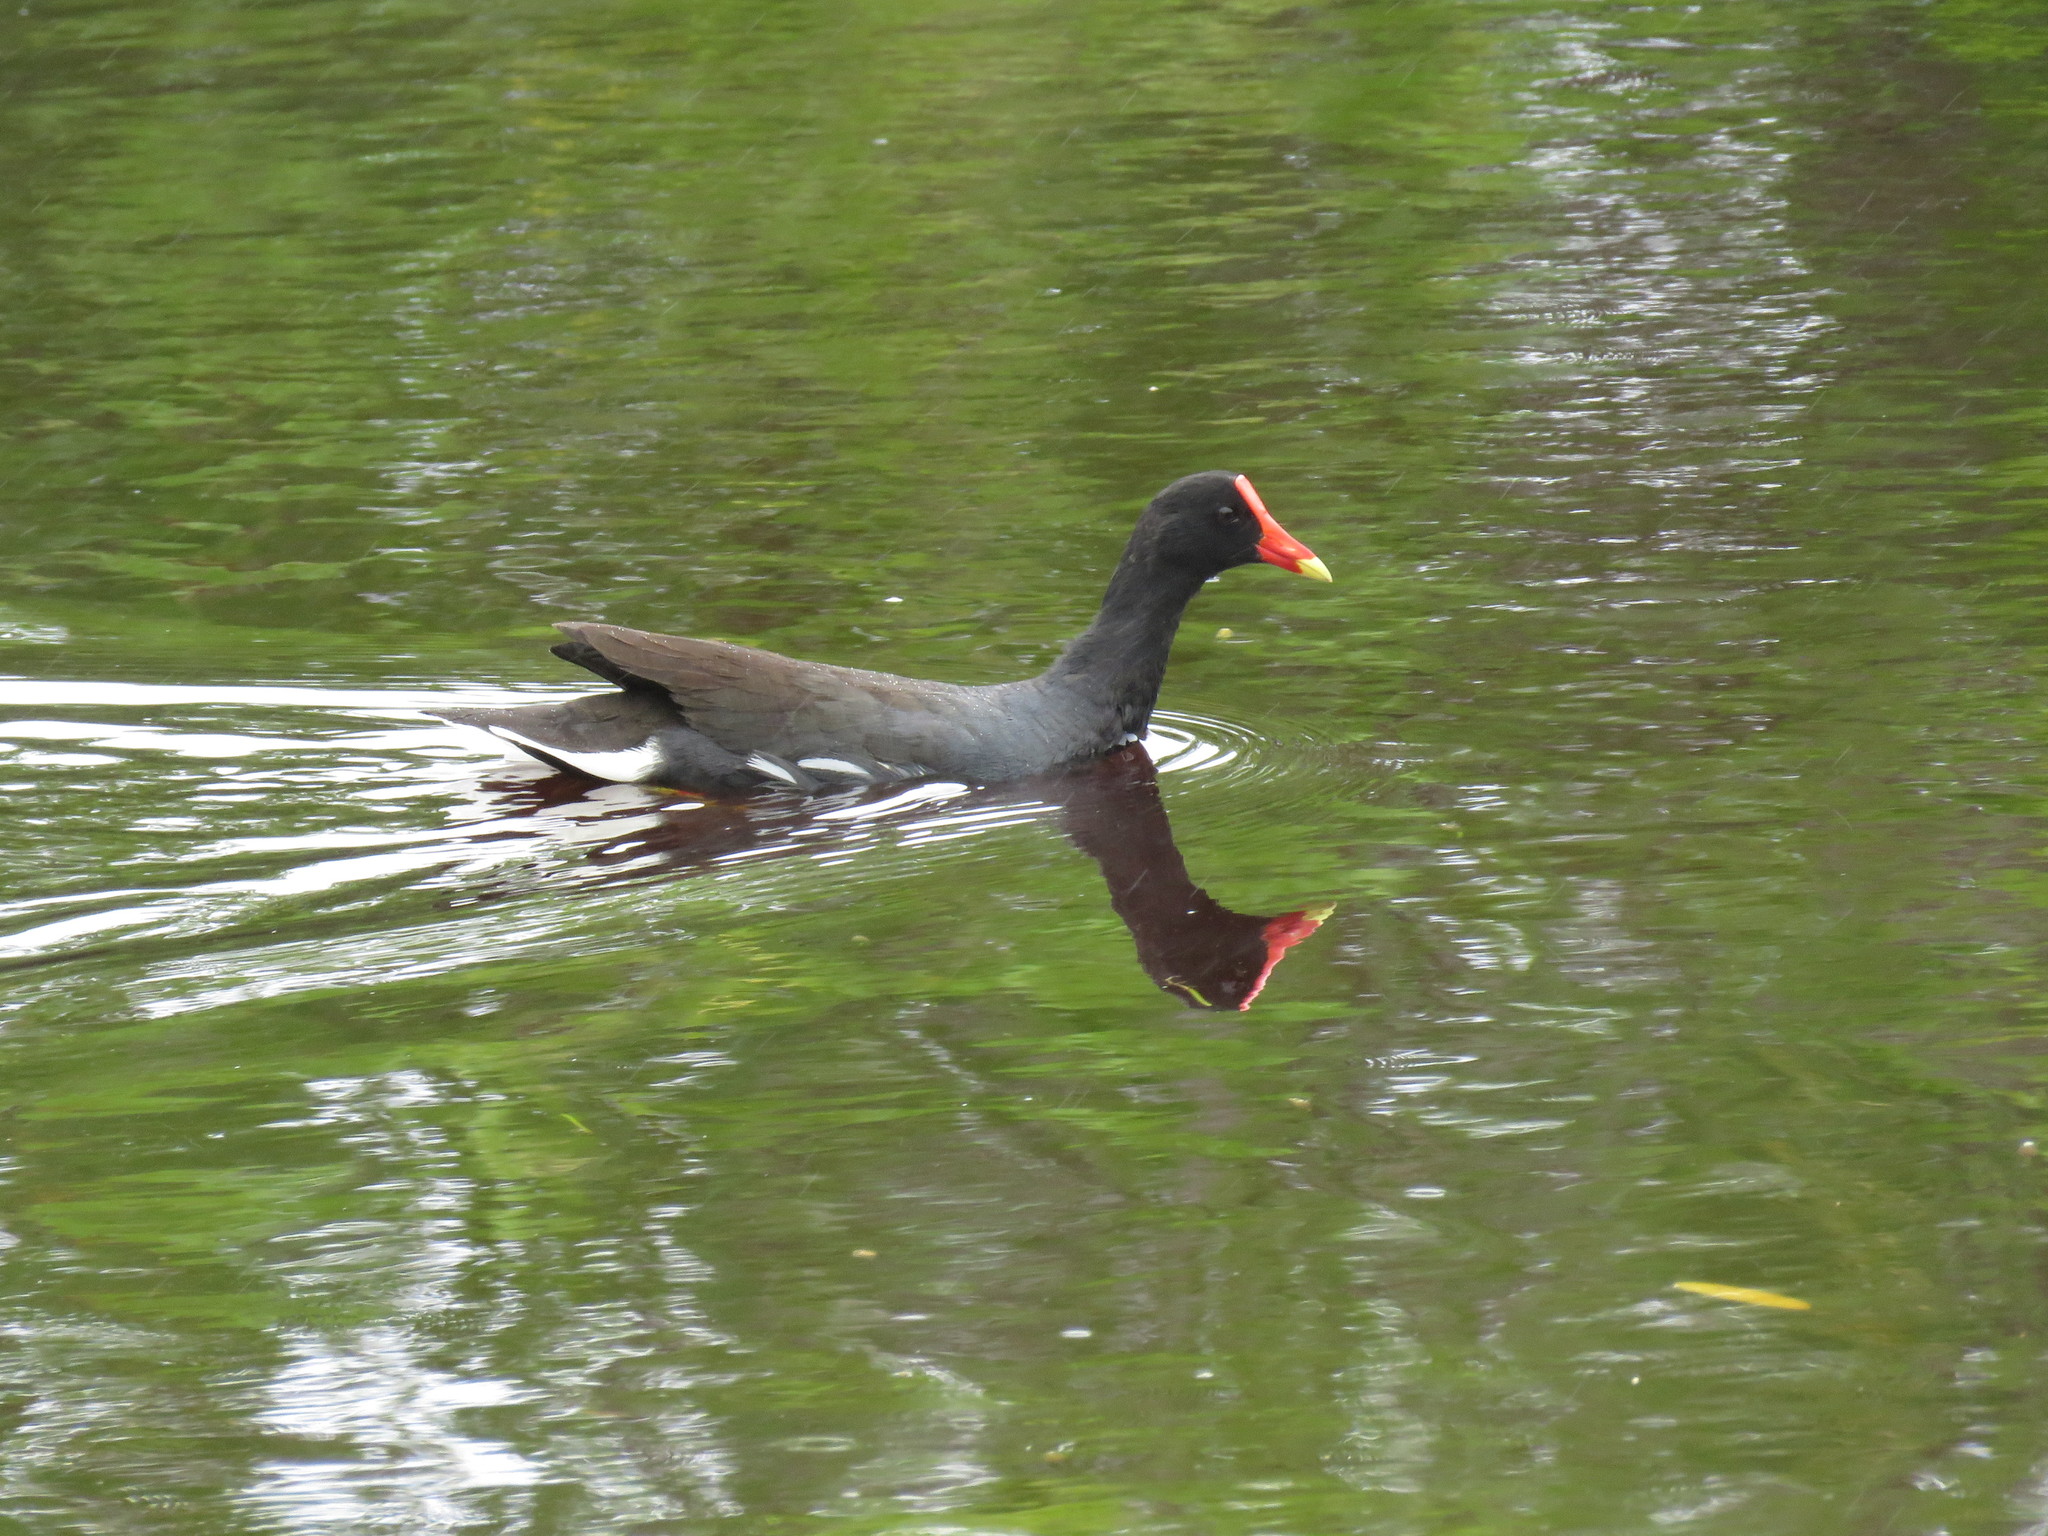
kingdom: Animalia
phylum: Chordata
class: Aves
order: Gruiformes
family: Rallidae
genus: Gallinula
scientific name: Gallinula chloropus
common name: Common moorhen
